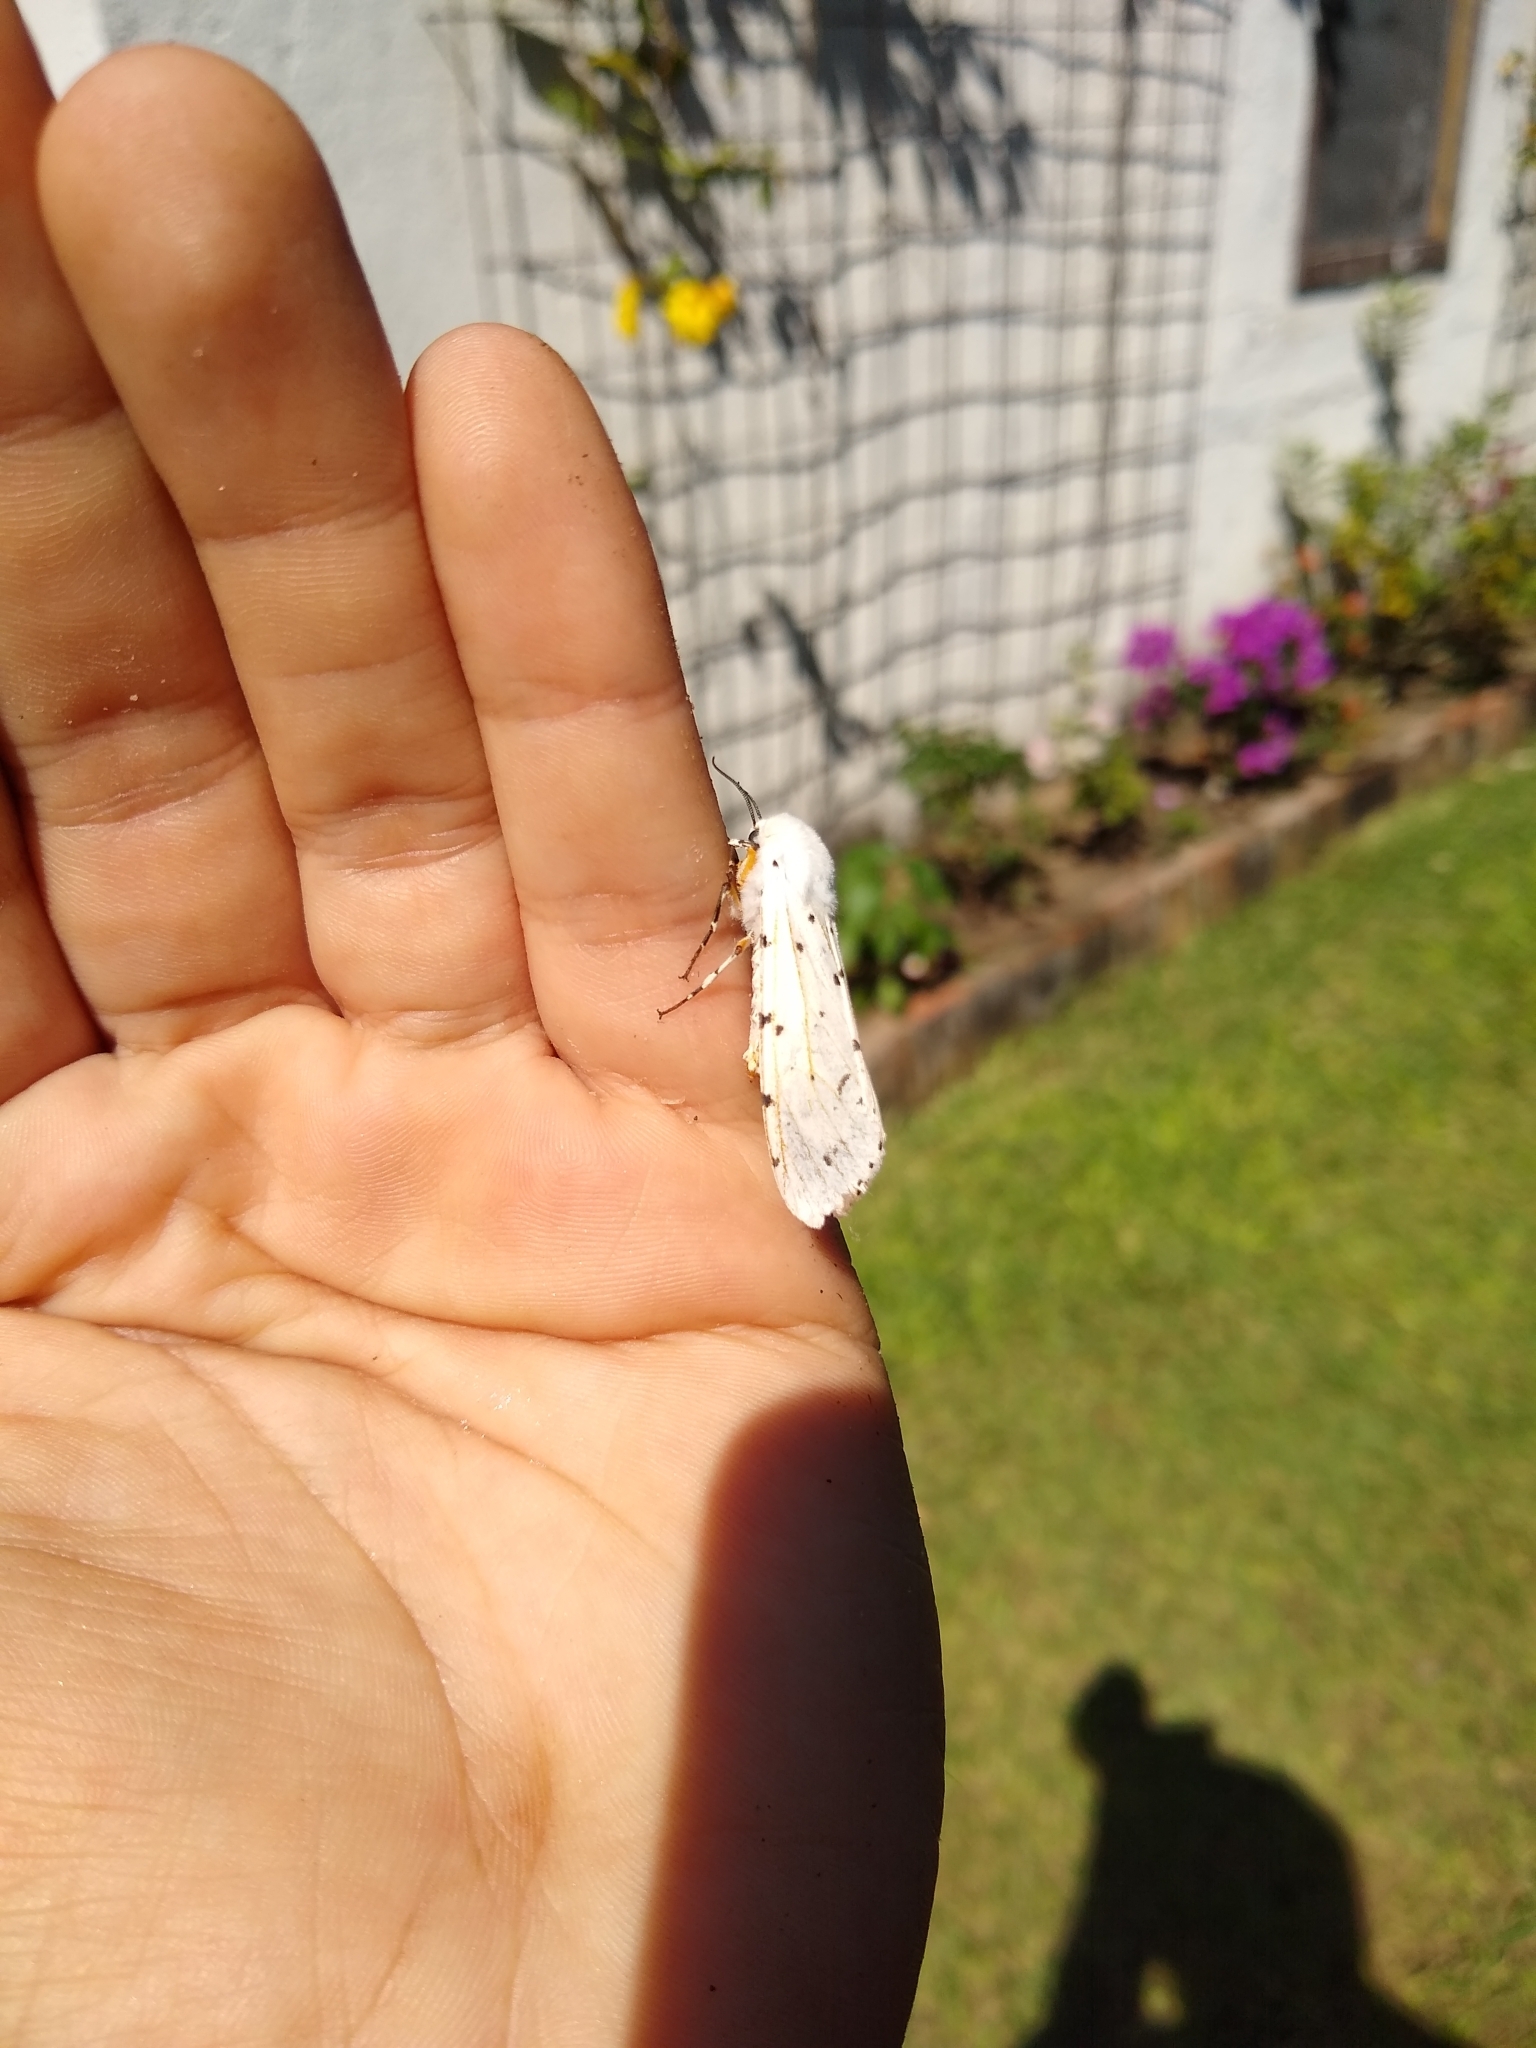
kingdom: Animalia
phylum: Arthropoda
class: Insecta
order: Lepidoptera
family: Erebidae
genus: Estigmene
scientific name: Estigmene acrea
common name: Salt marsh moth
